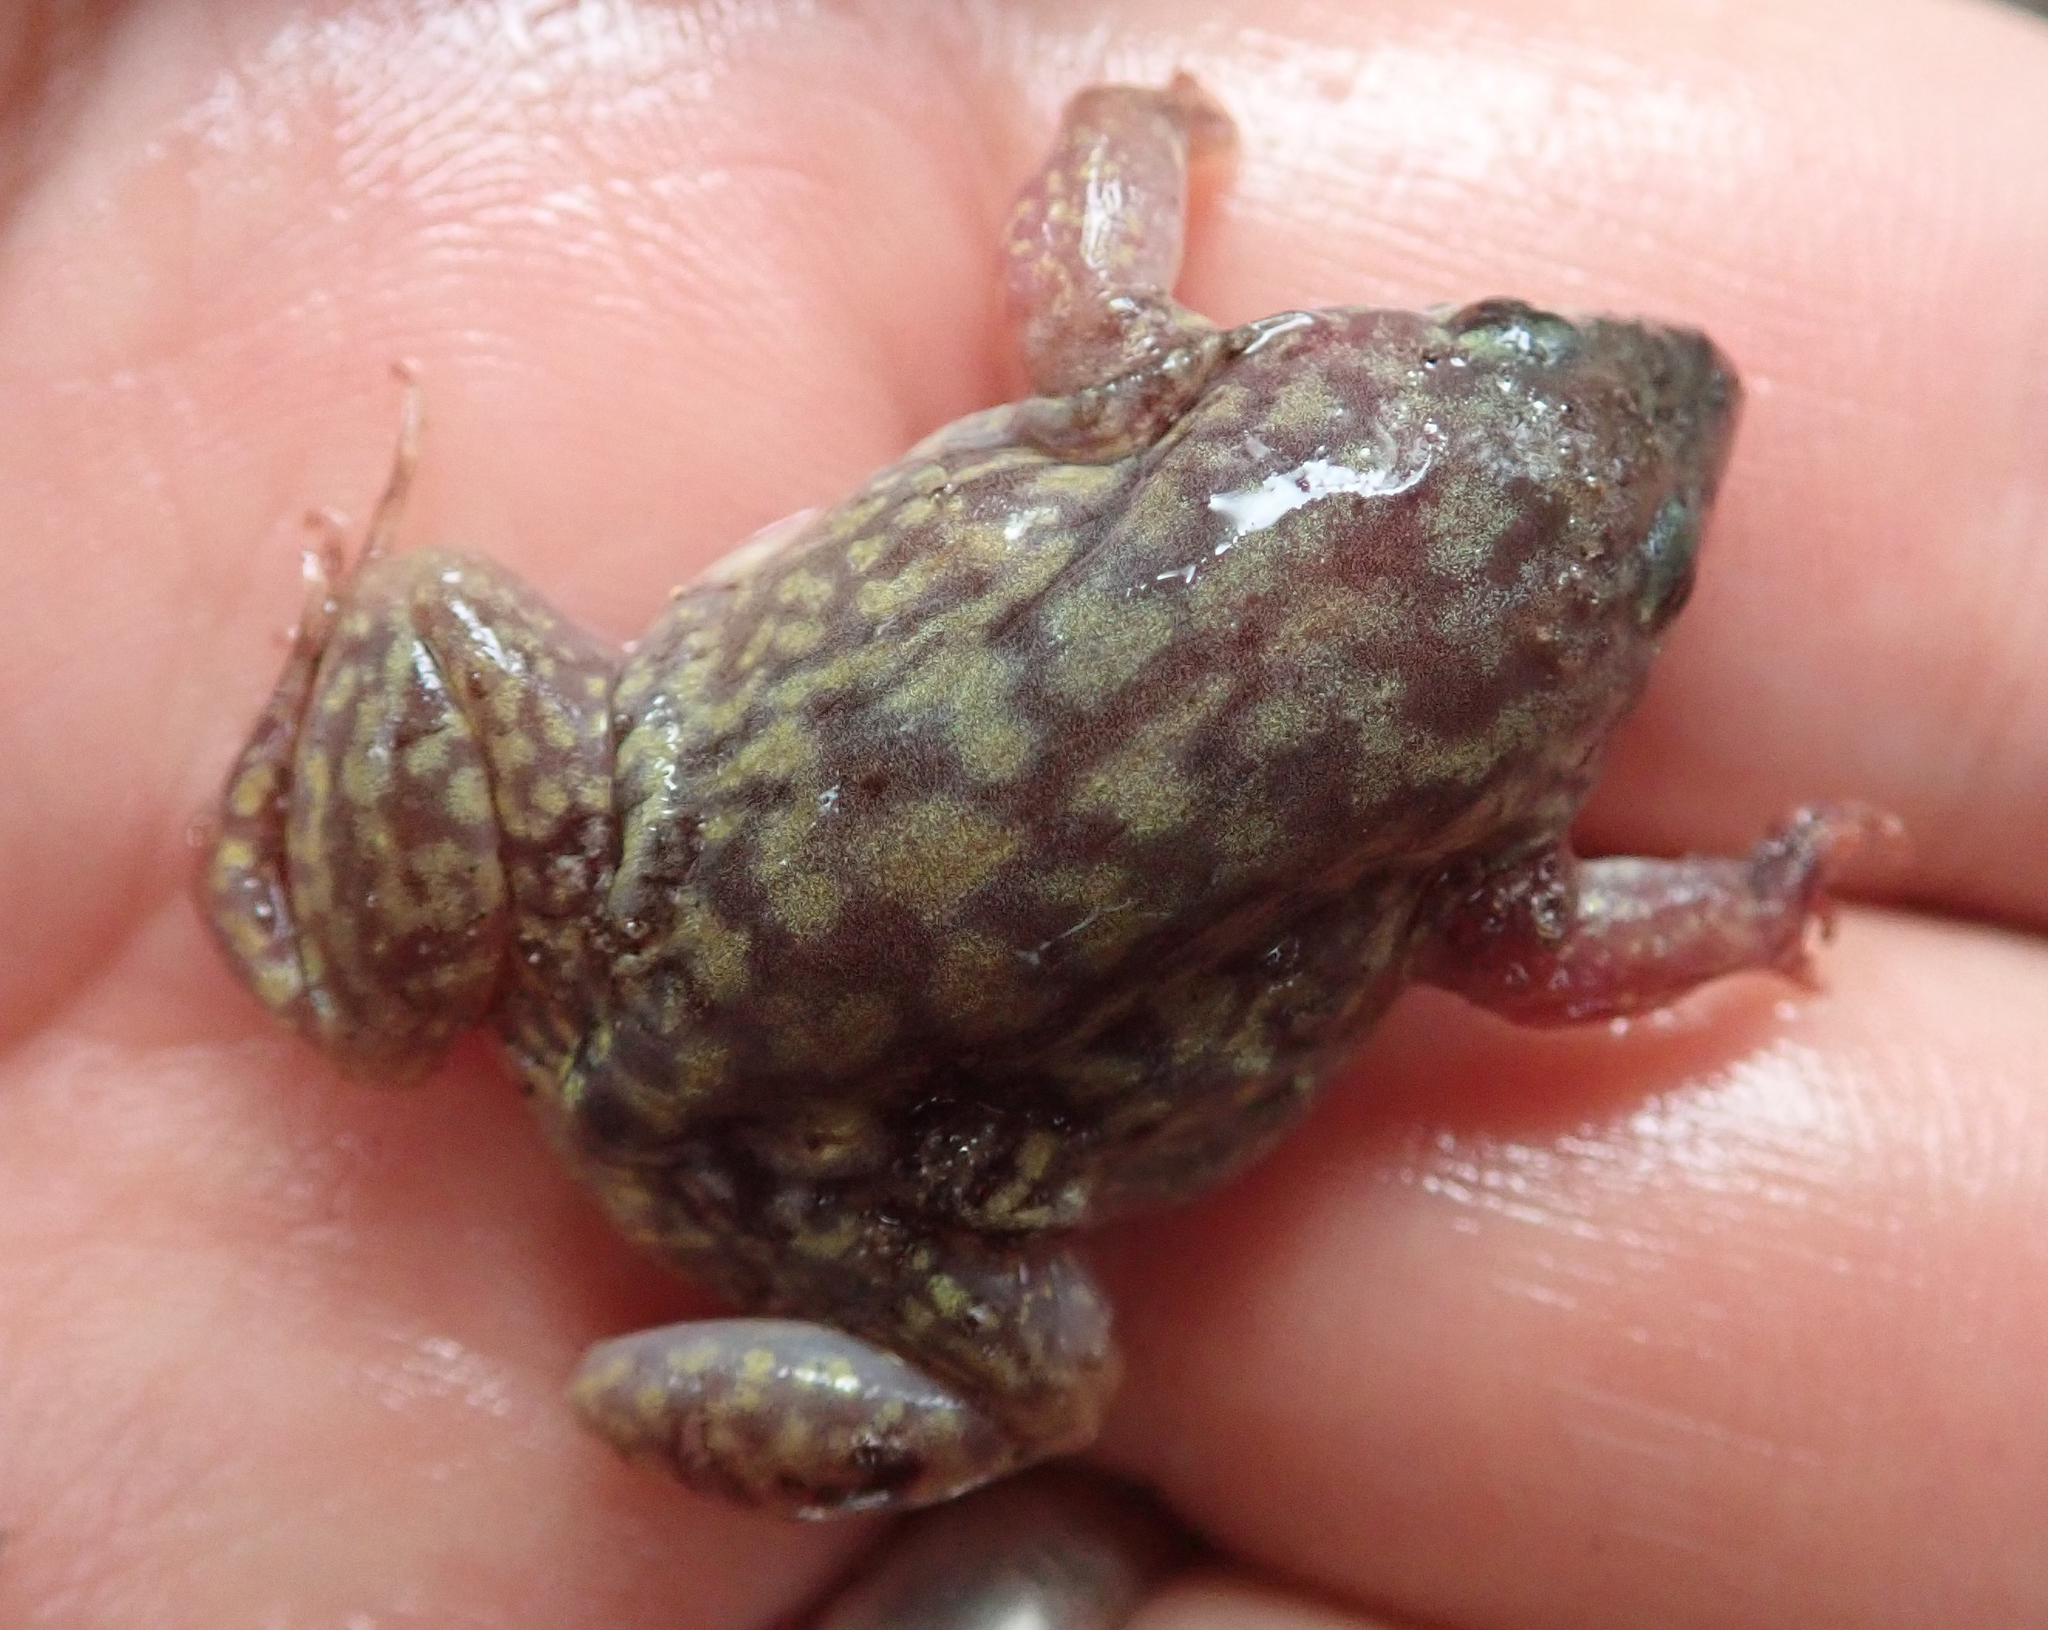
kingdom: Animalia
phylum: Chordata
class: Amphibia
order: Anura
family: Hemisotidae
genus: Hemisus
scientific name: Hemisus marmoratus
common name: Mottled shovel-nosed frog
